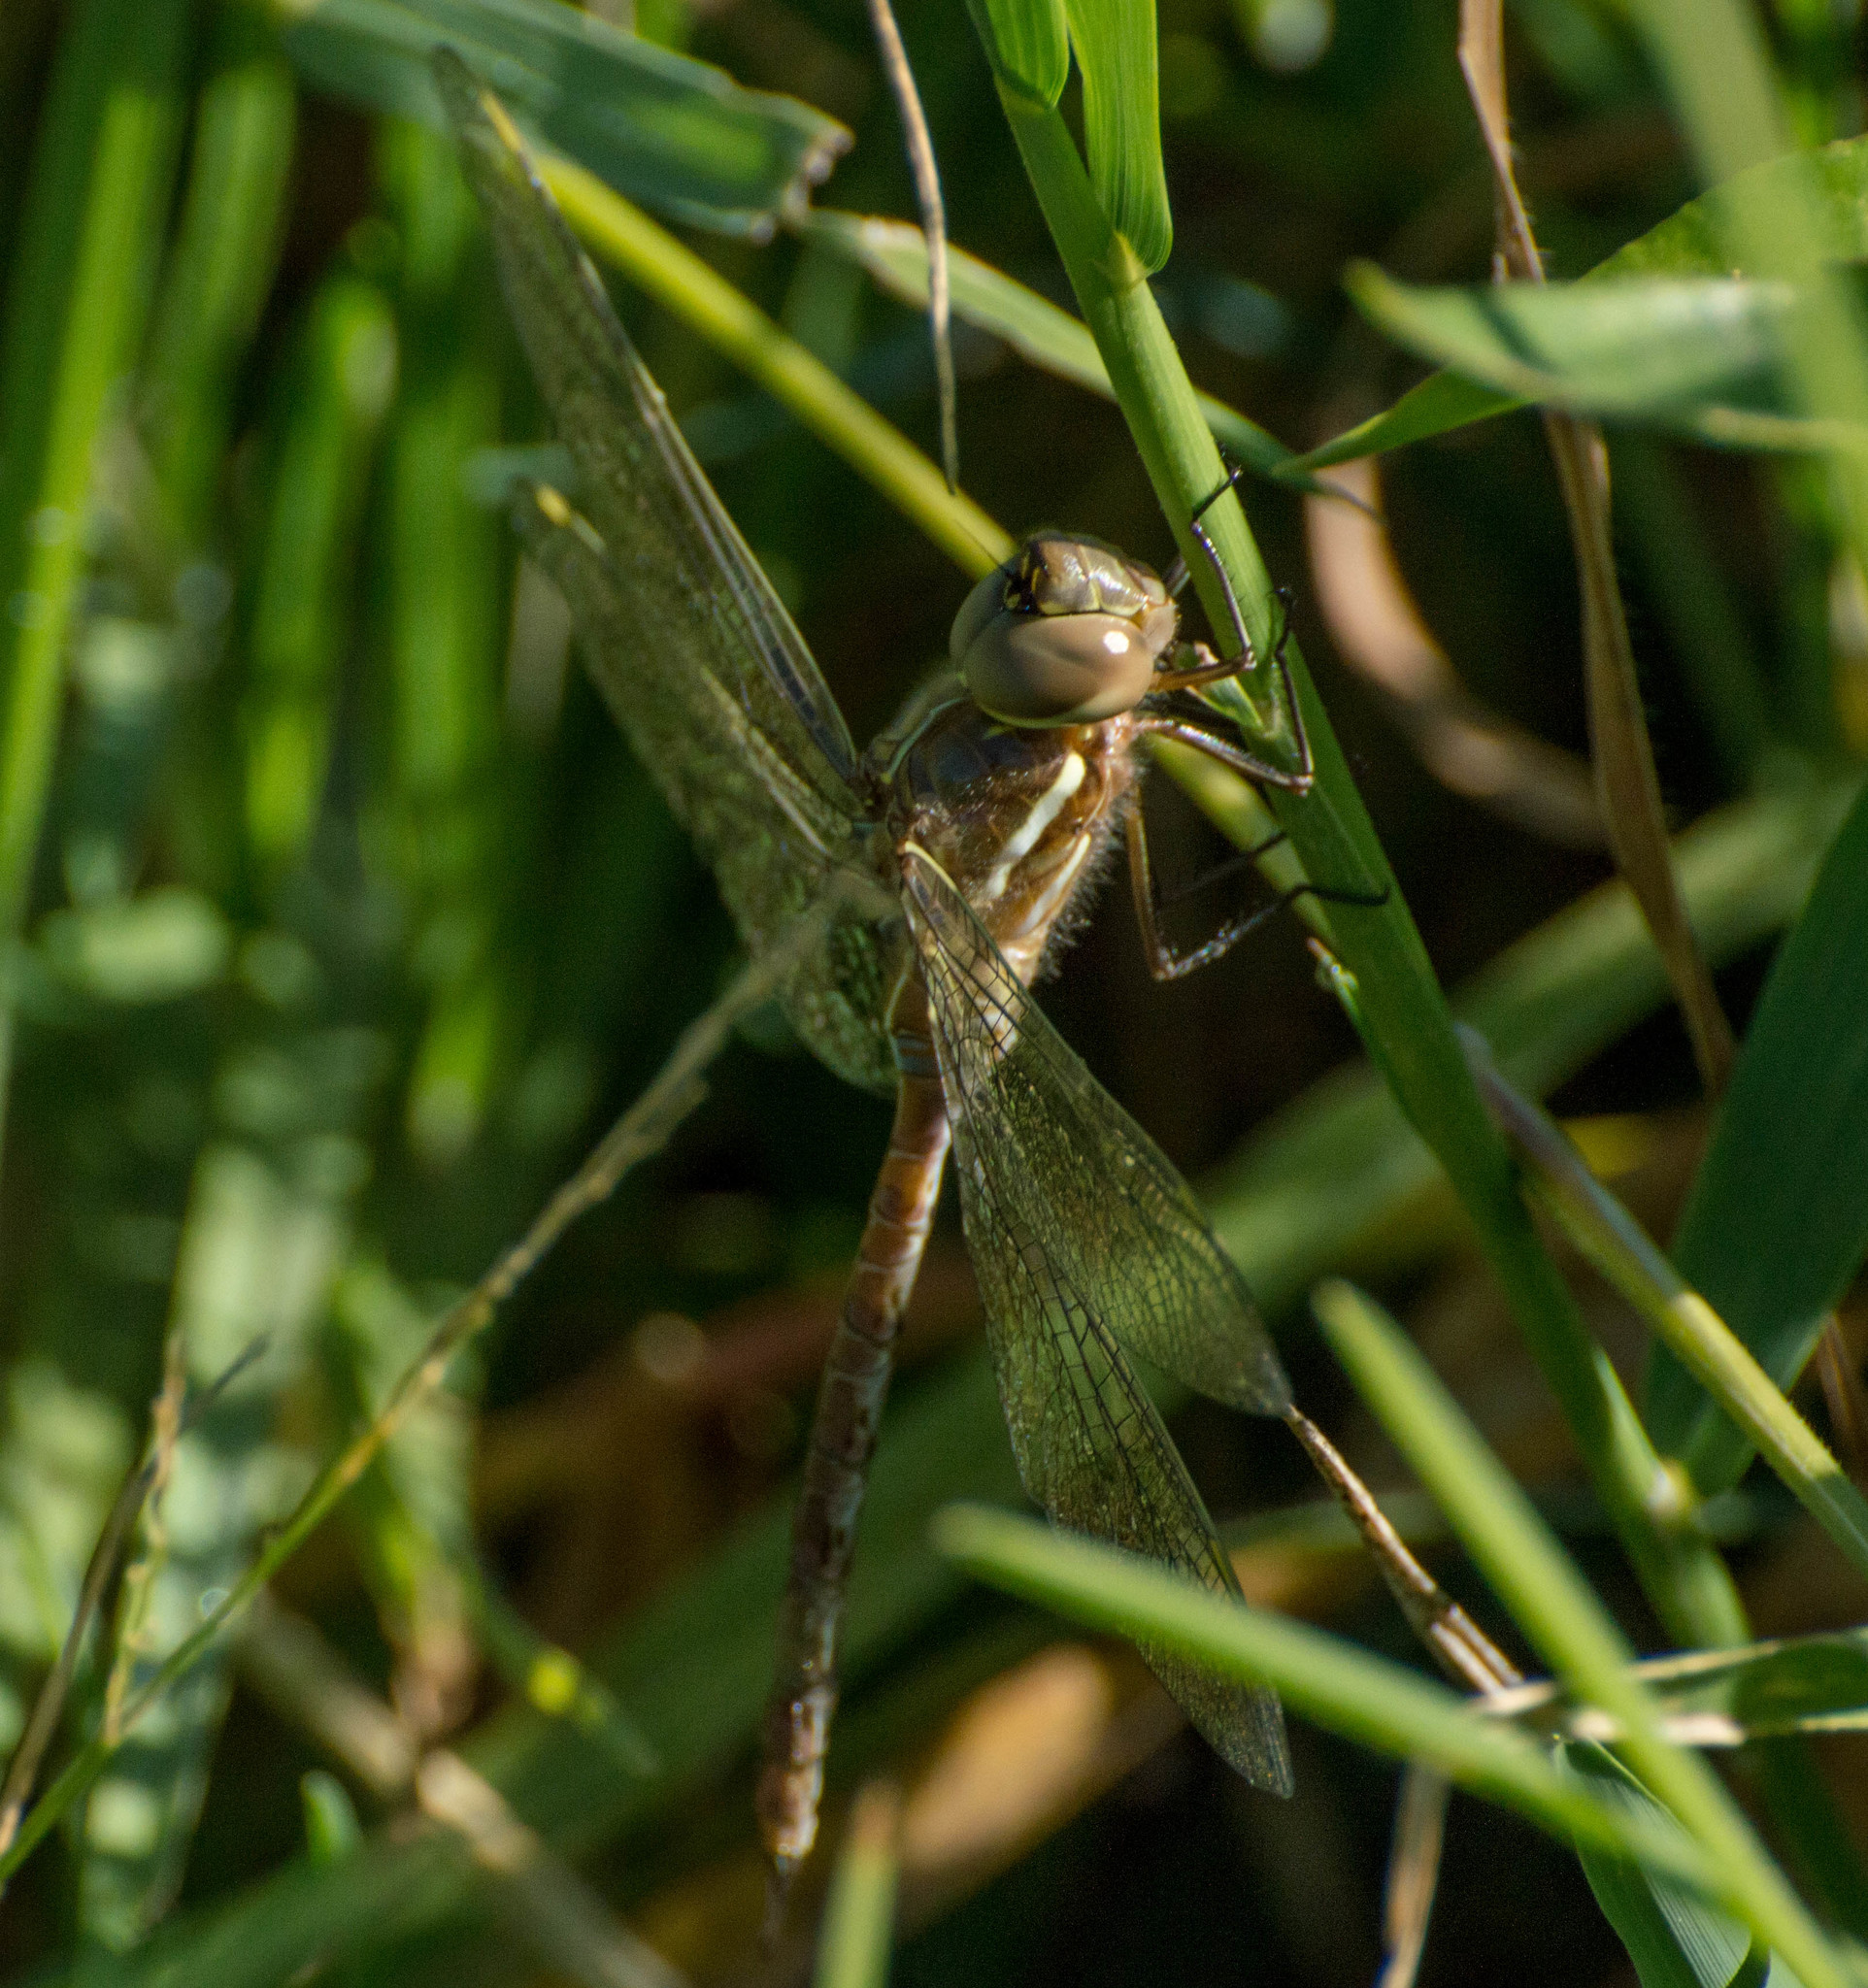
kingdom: Animalia
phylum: Arthropoda
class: Insecta
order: Odonata
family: Aeshnidae
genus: Rhionaeschna
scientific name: Rhionaeschna bonariensis
